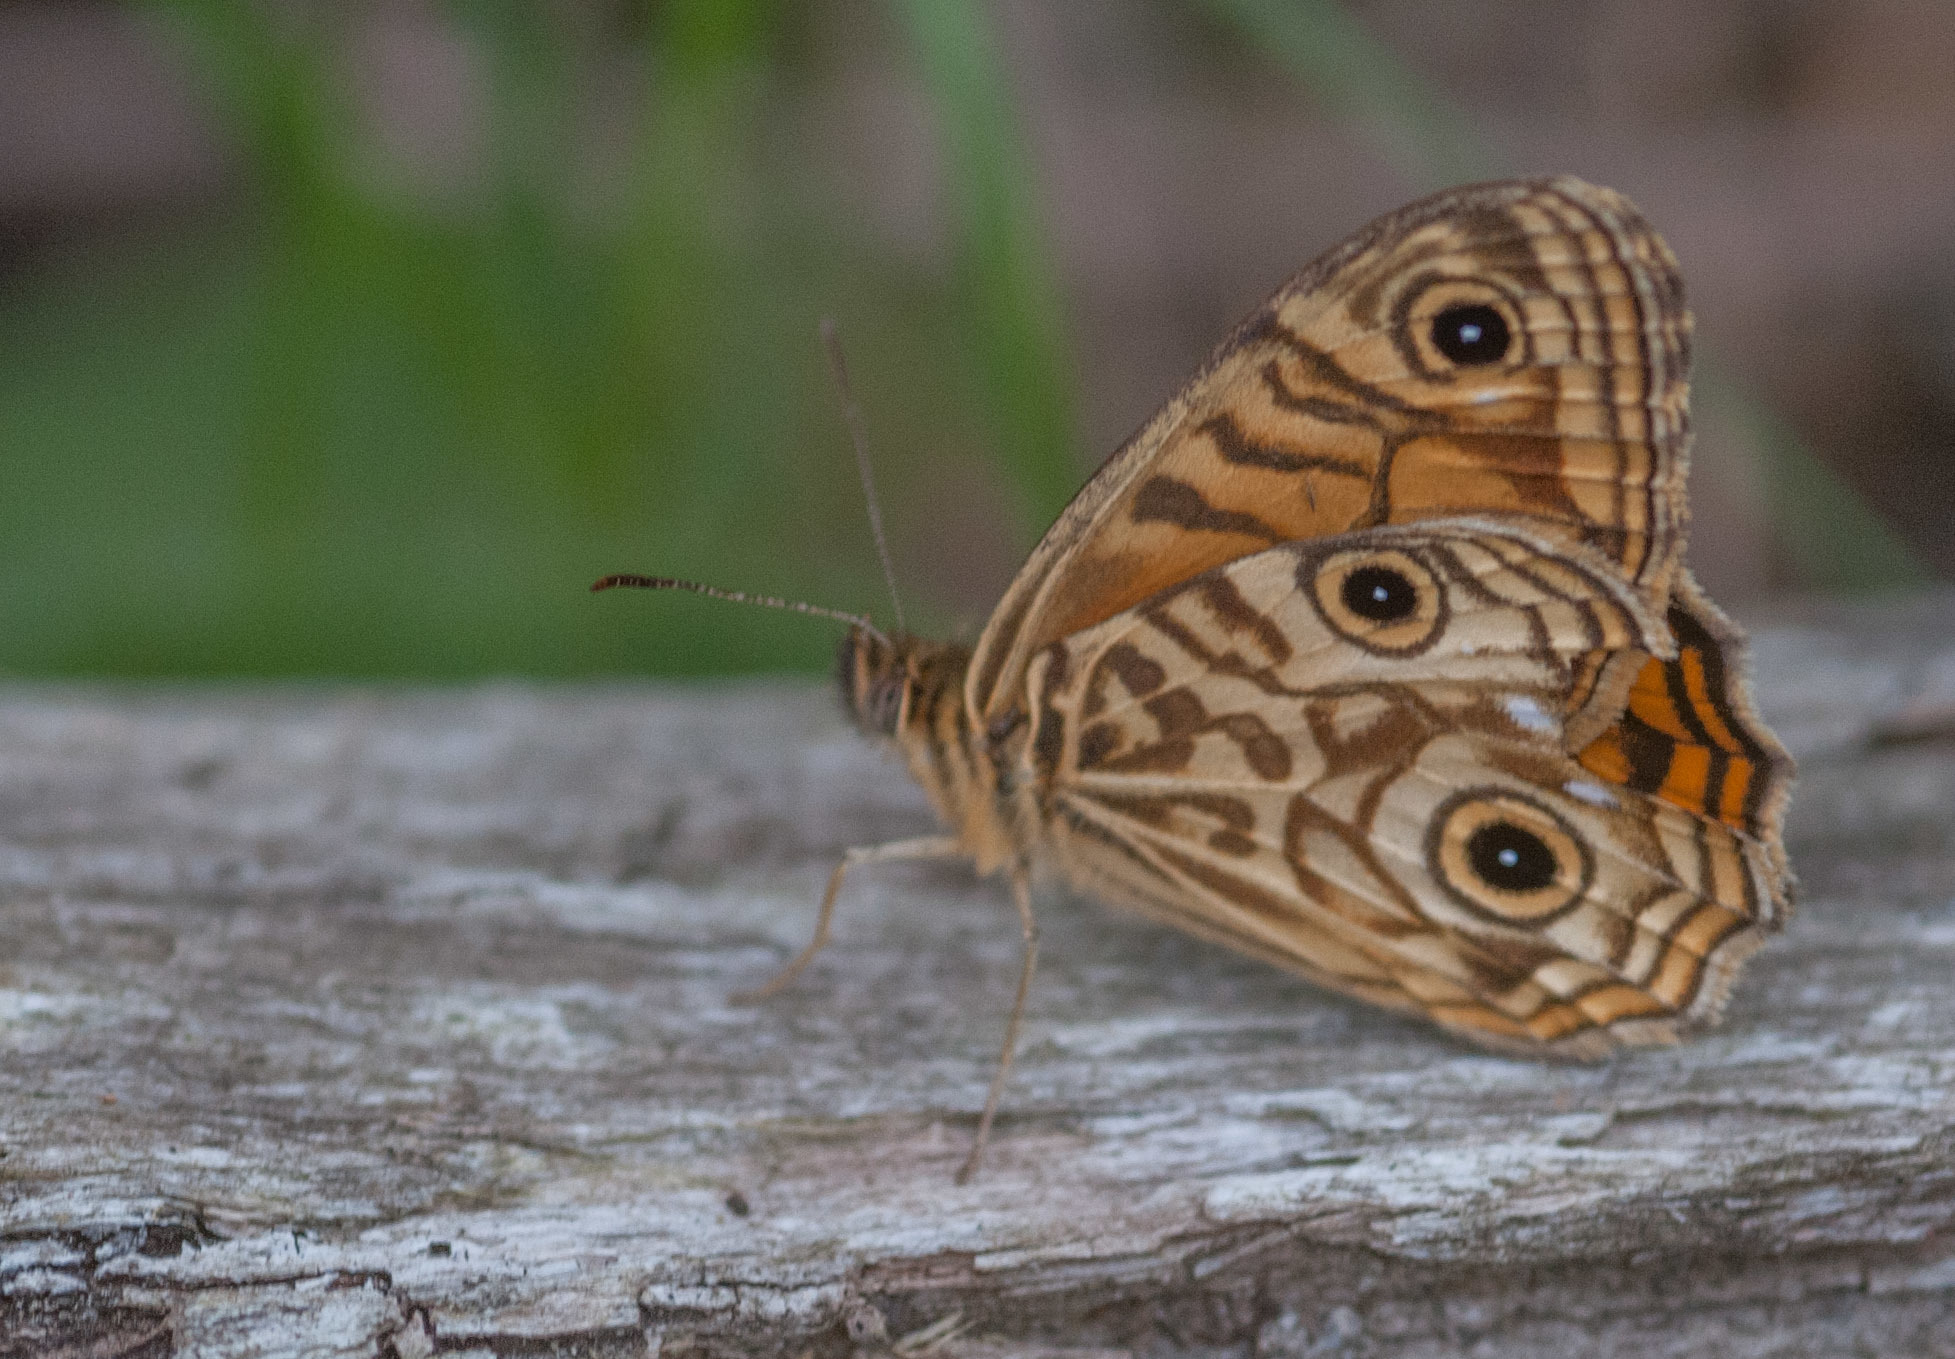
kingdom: Animalia
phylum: Arthropoda
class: Insecta
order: Lepidoptera
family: Nymphalidae
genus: Geitoneura
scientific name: Geitoneura acantha
